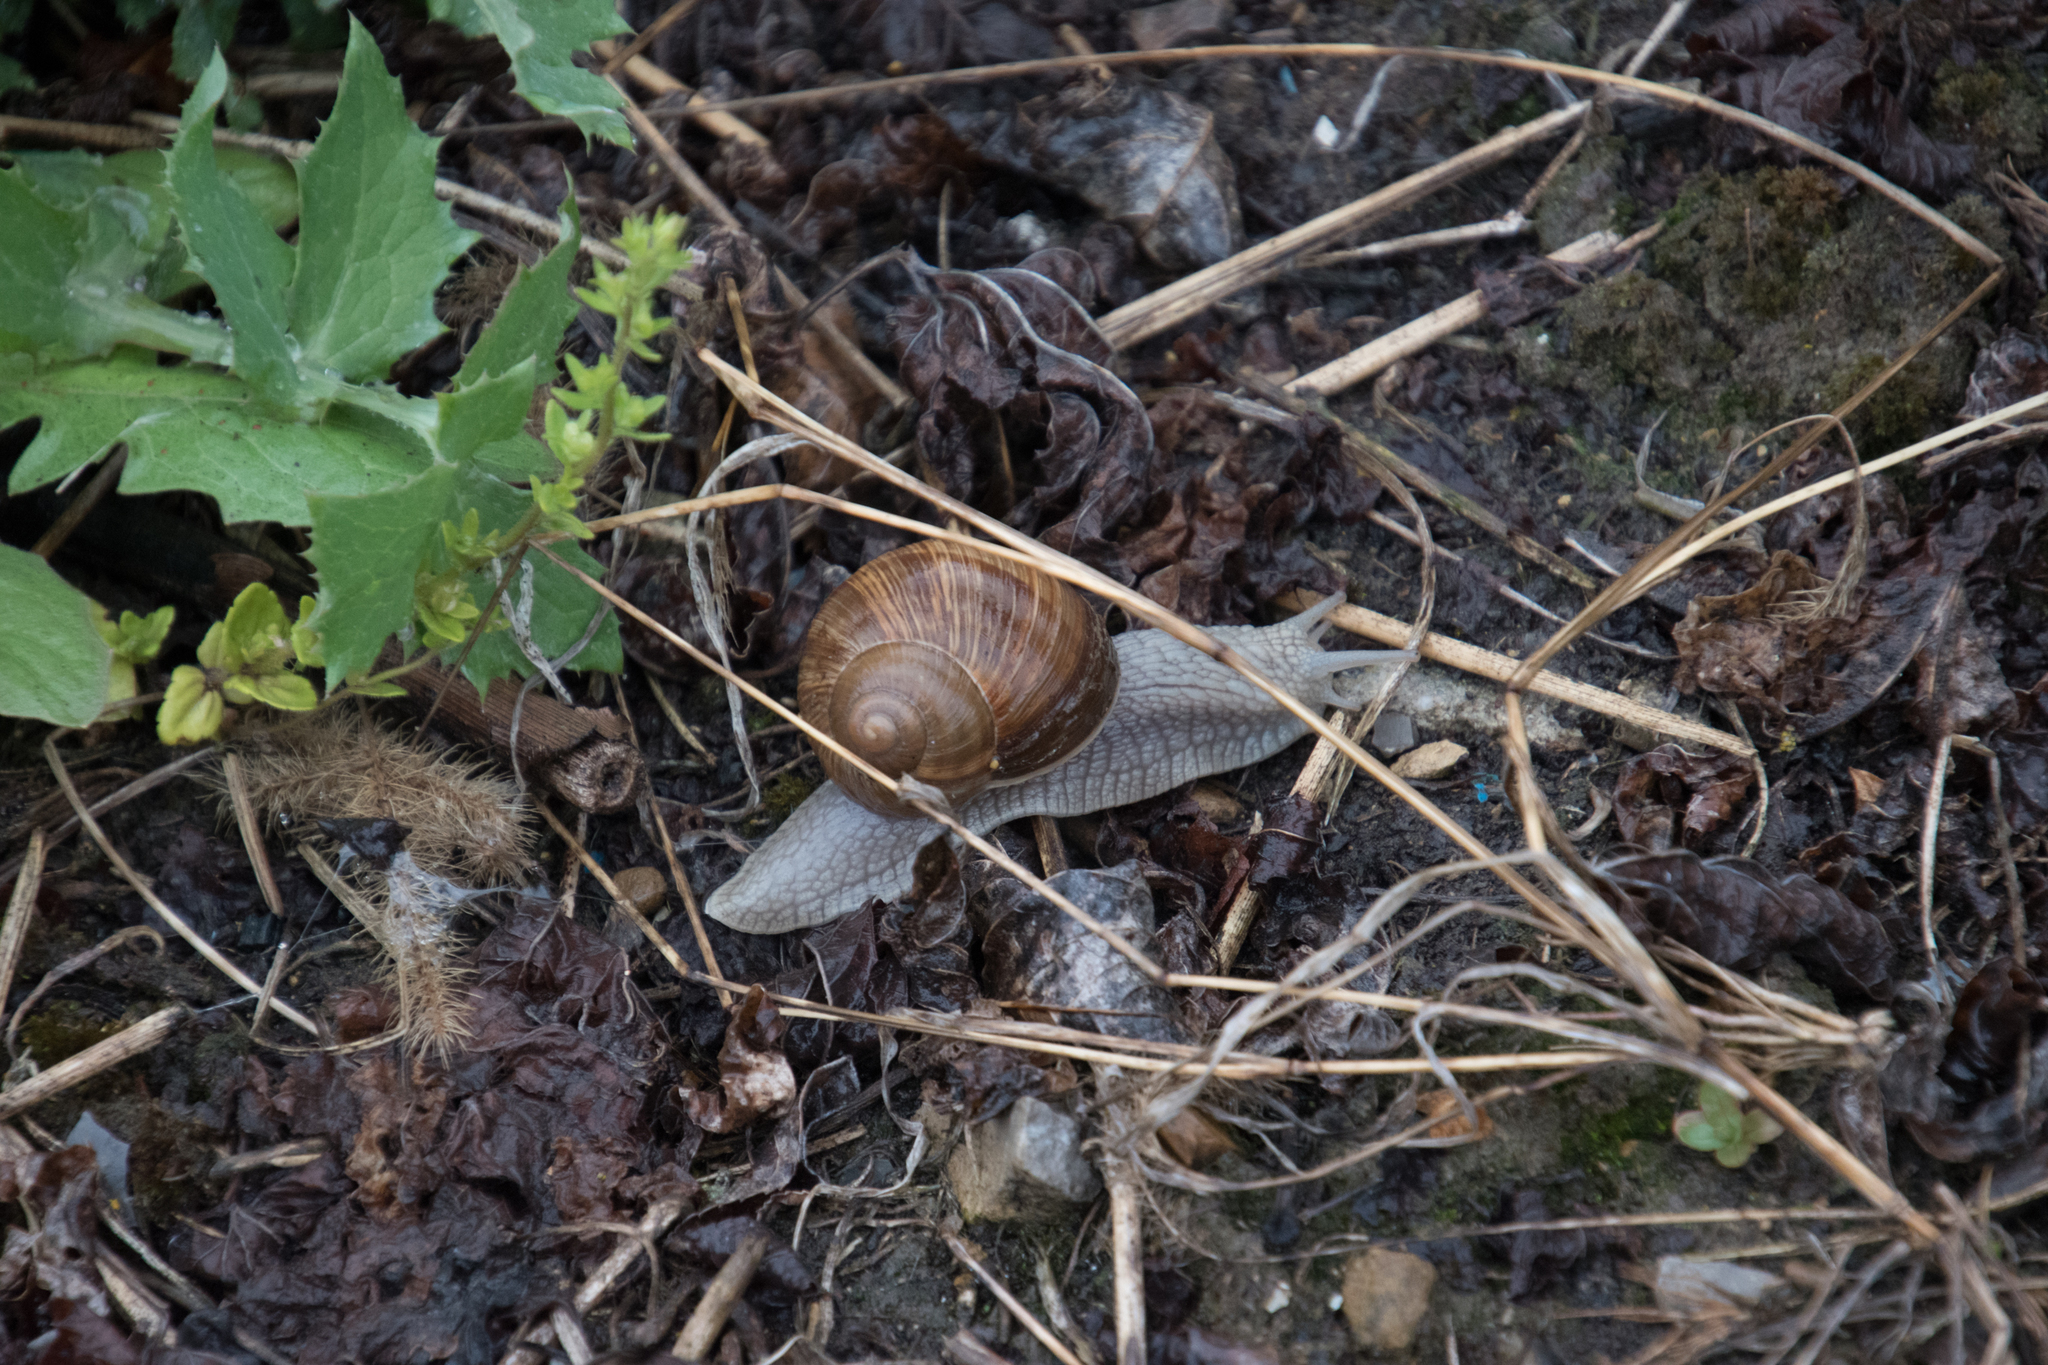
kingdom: Animalia
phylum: Mollusca
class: Gastropoda
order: Stylommatophora
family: Helicidae
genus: Helix
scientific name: Helix pomatia
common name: Roman snail
